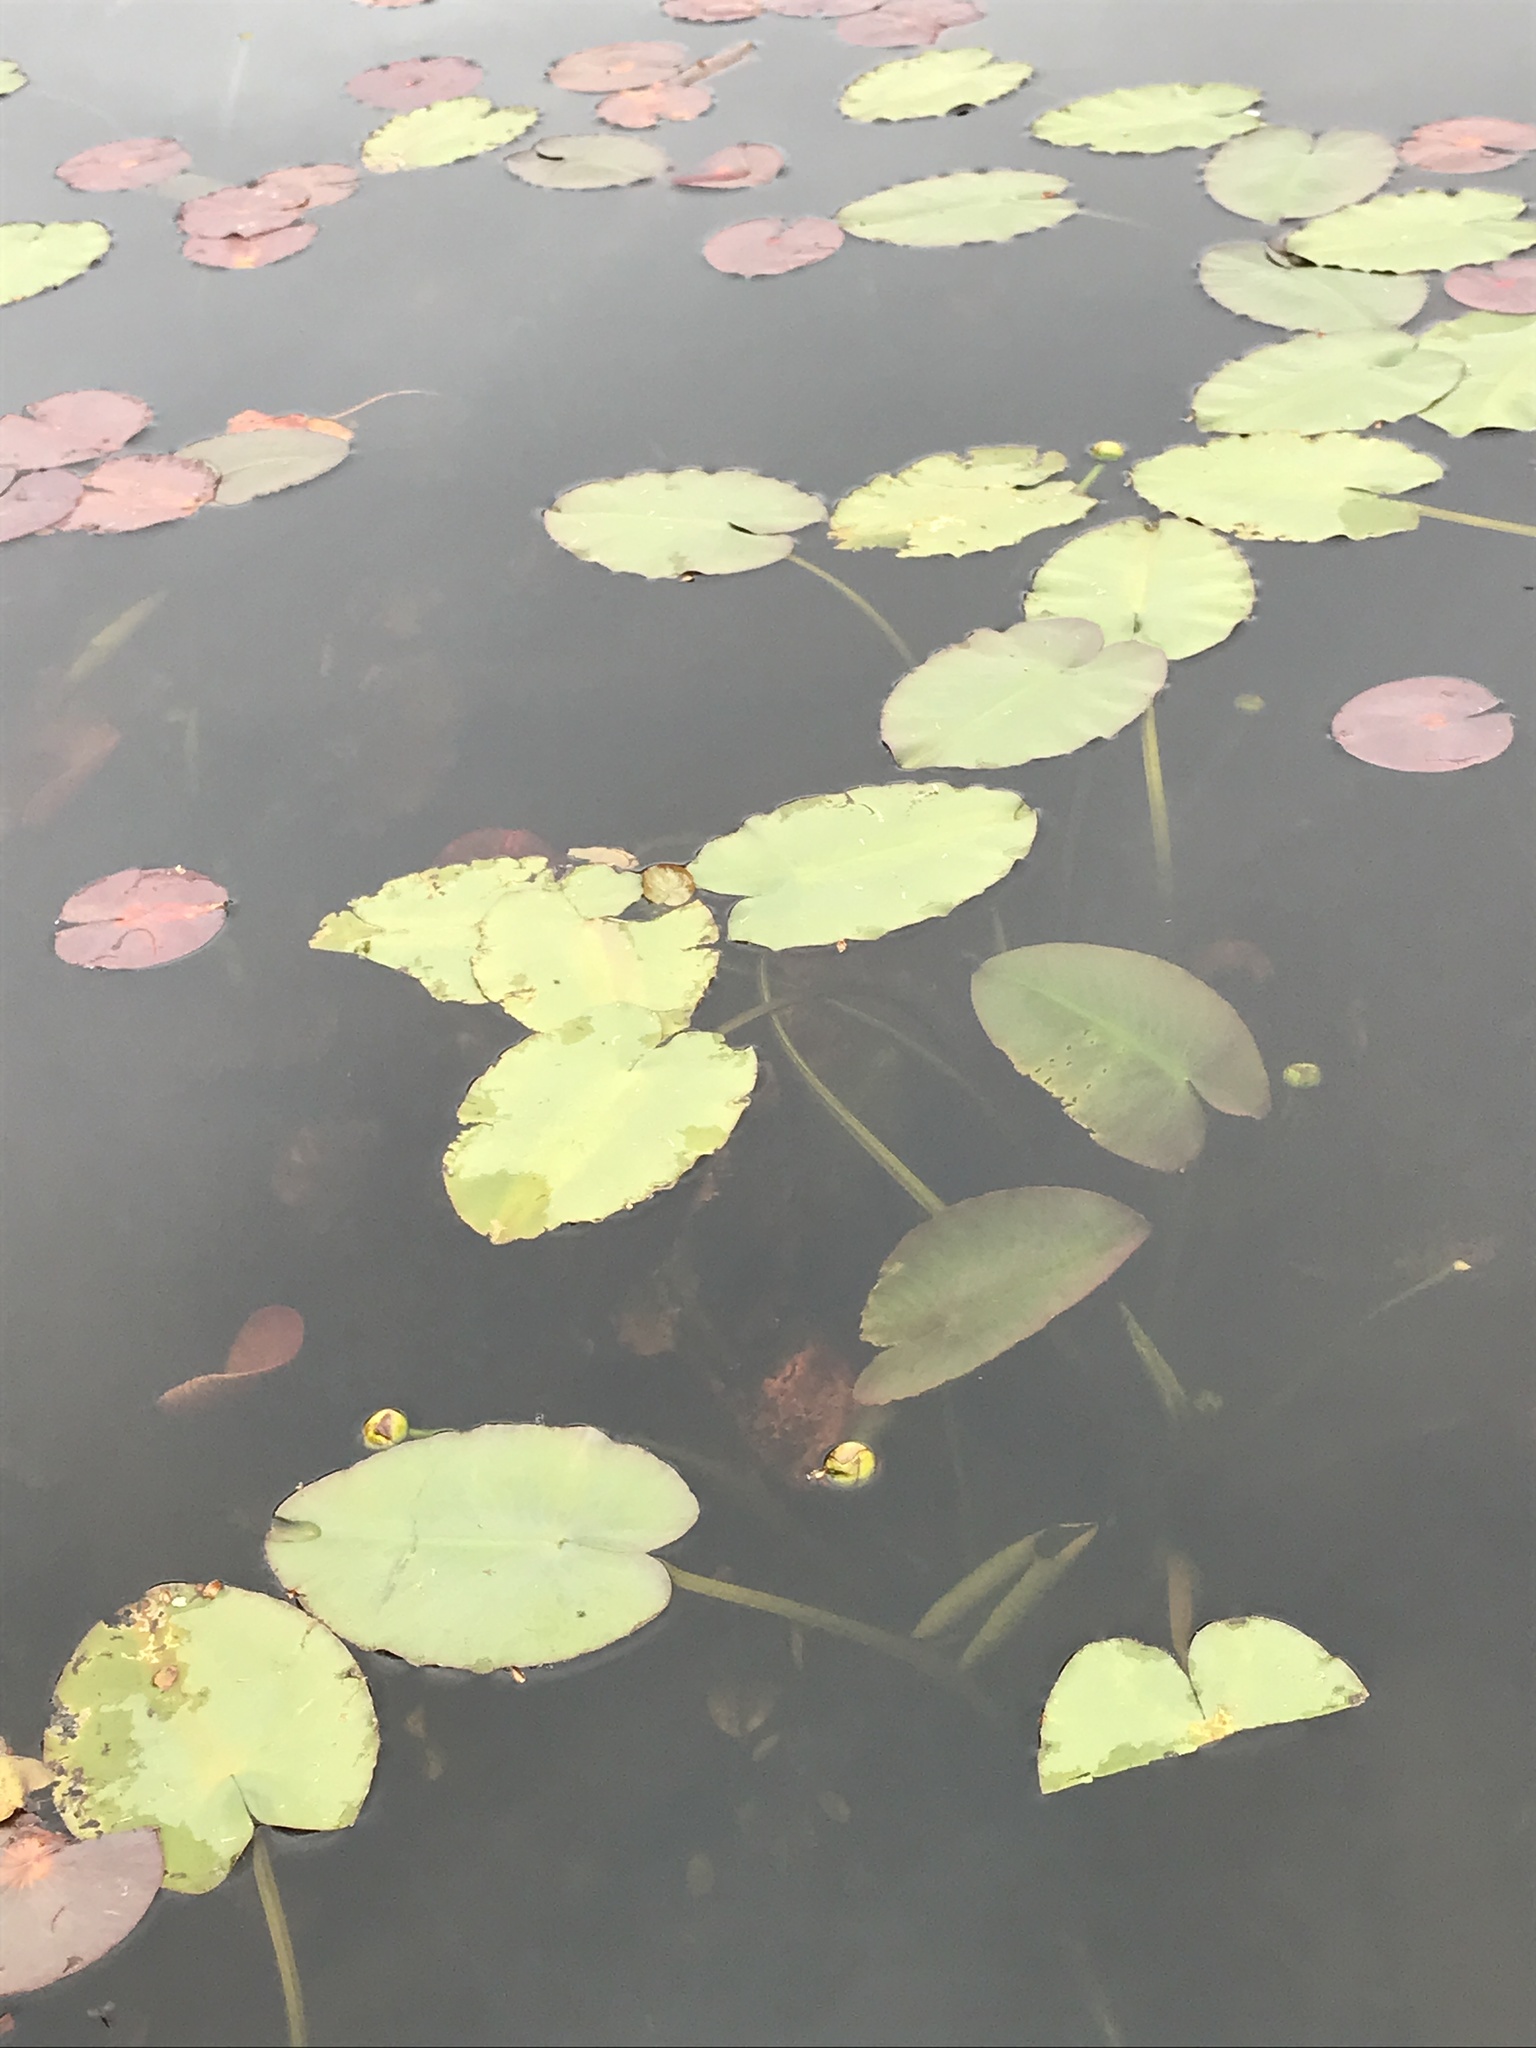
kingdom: Plantae
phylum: Tracheophyta
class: Magnoliopsida
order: Nymphaeales
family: Nymphaeaceae
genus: Nuphar
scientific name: Nuphar advena
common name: Spatter-dock
